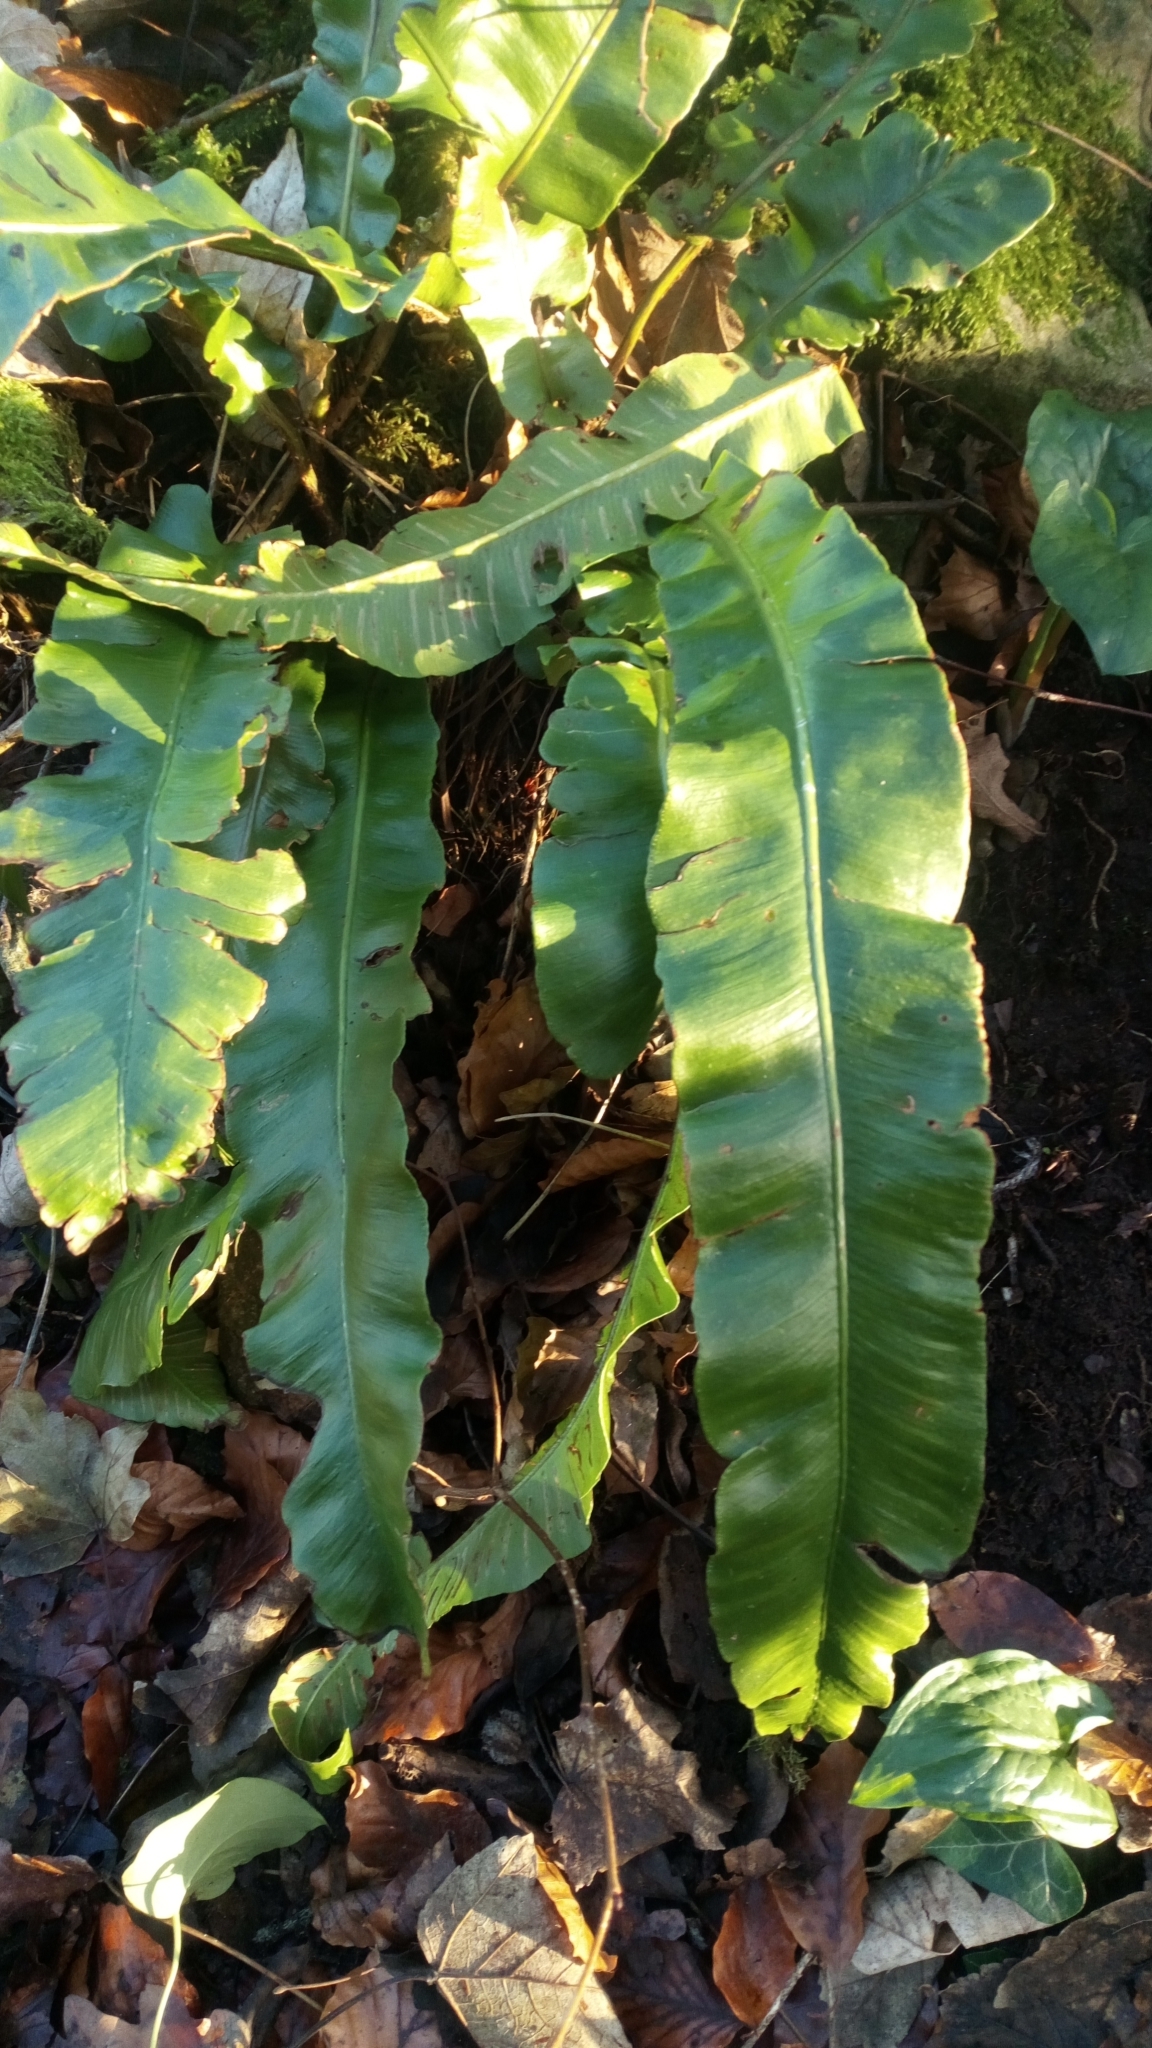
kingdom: Plantae
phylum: Tracheophyta
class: Polypodiopsida
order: Polypodiales
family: Aspleniaceae
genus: Asplenium
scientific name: Asplenium scolopendrium
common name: Hart's-tongue fern
